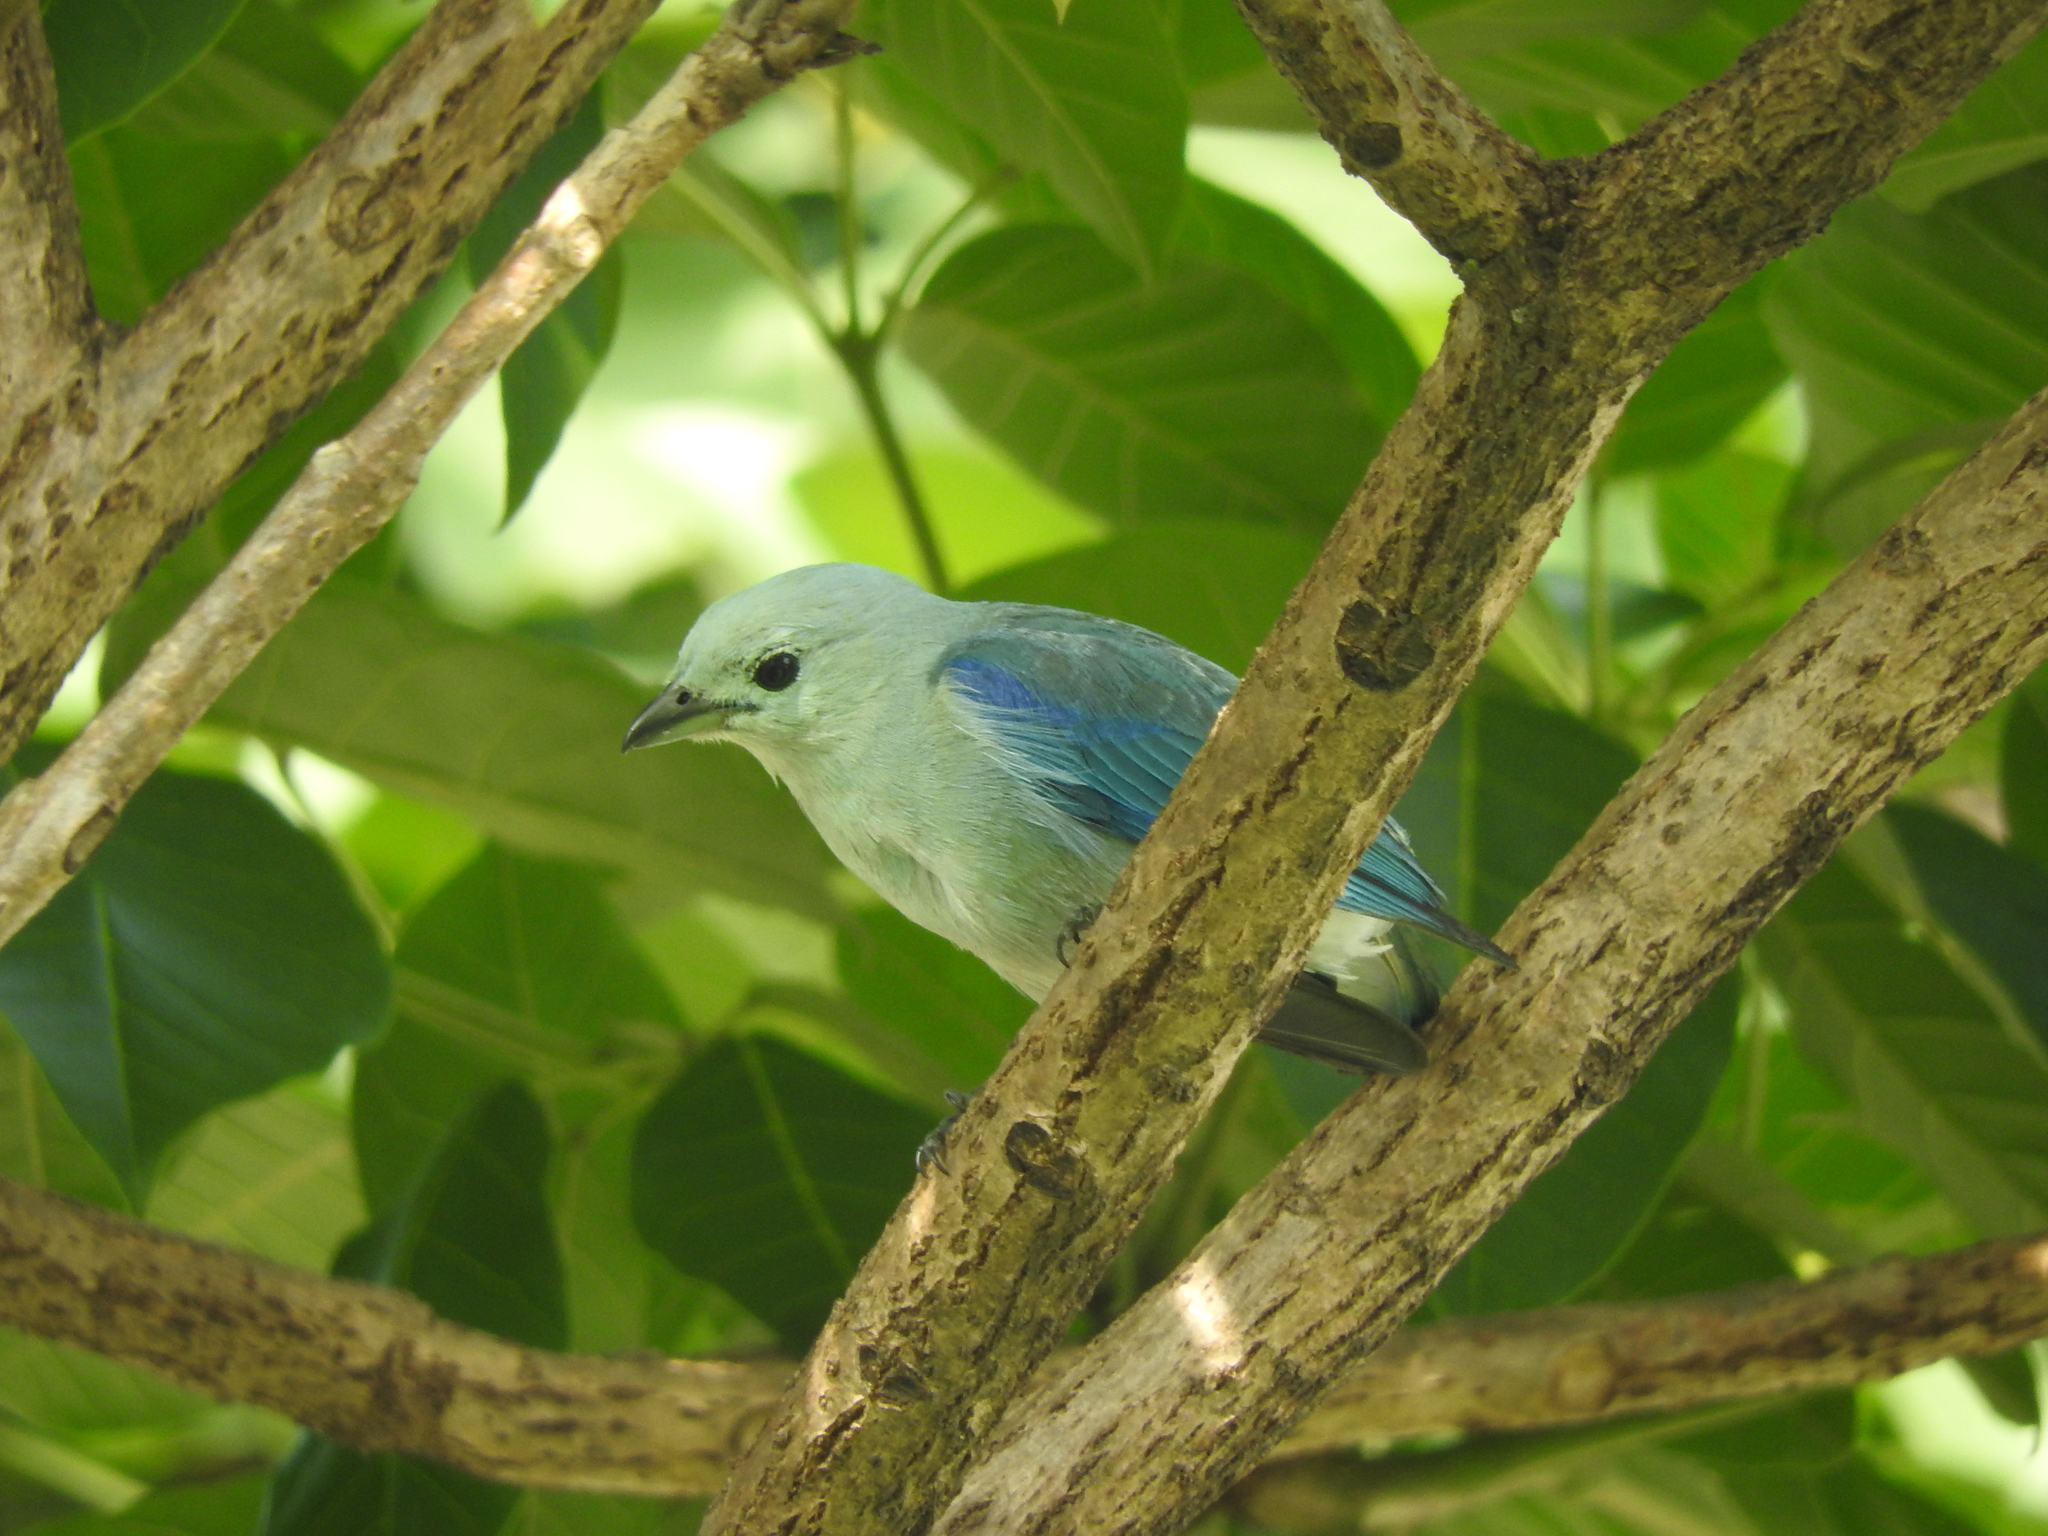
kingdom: Animalia
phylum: Chordata
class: Aves
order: Passeriformes
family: Thraupidae
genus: Thraupis
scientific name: Thraupis episcopus
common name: Blue-grey tanager
